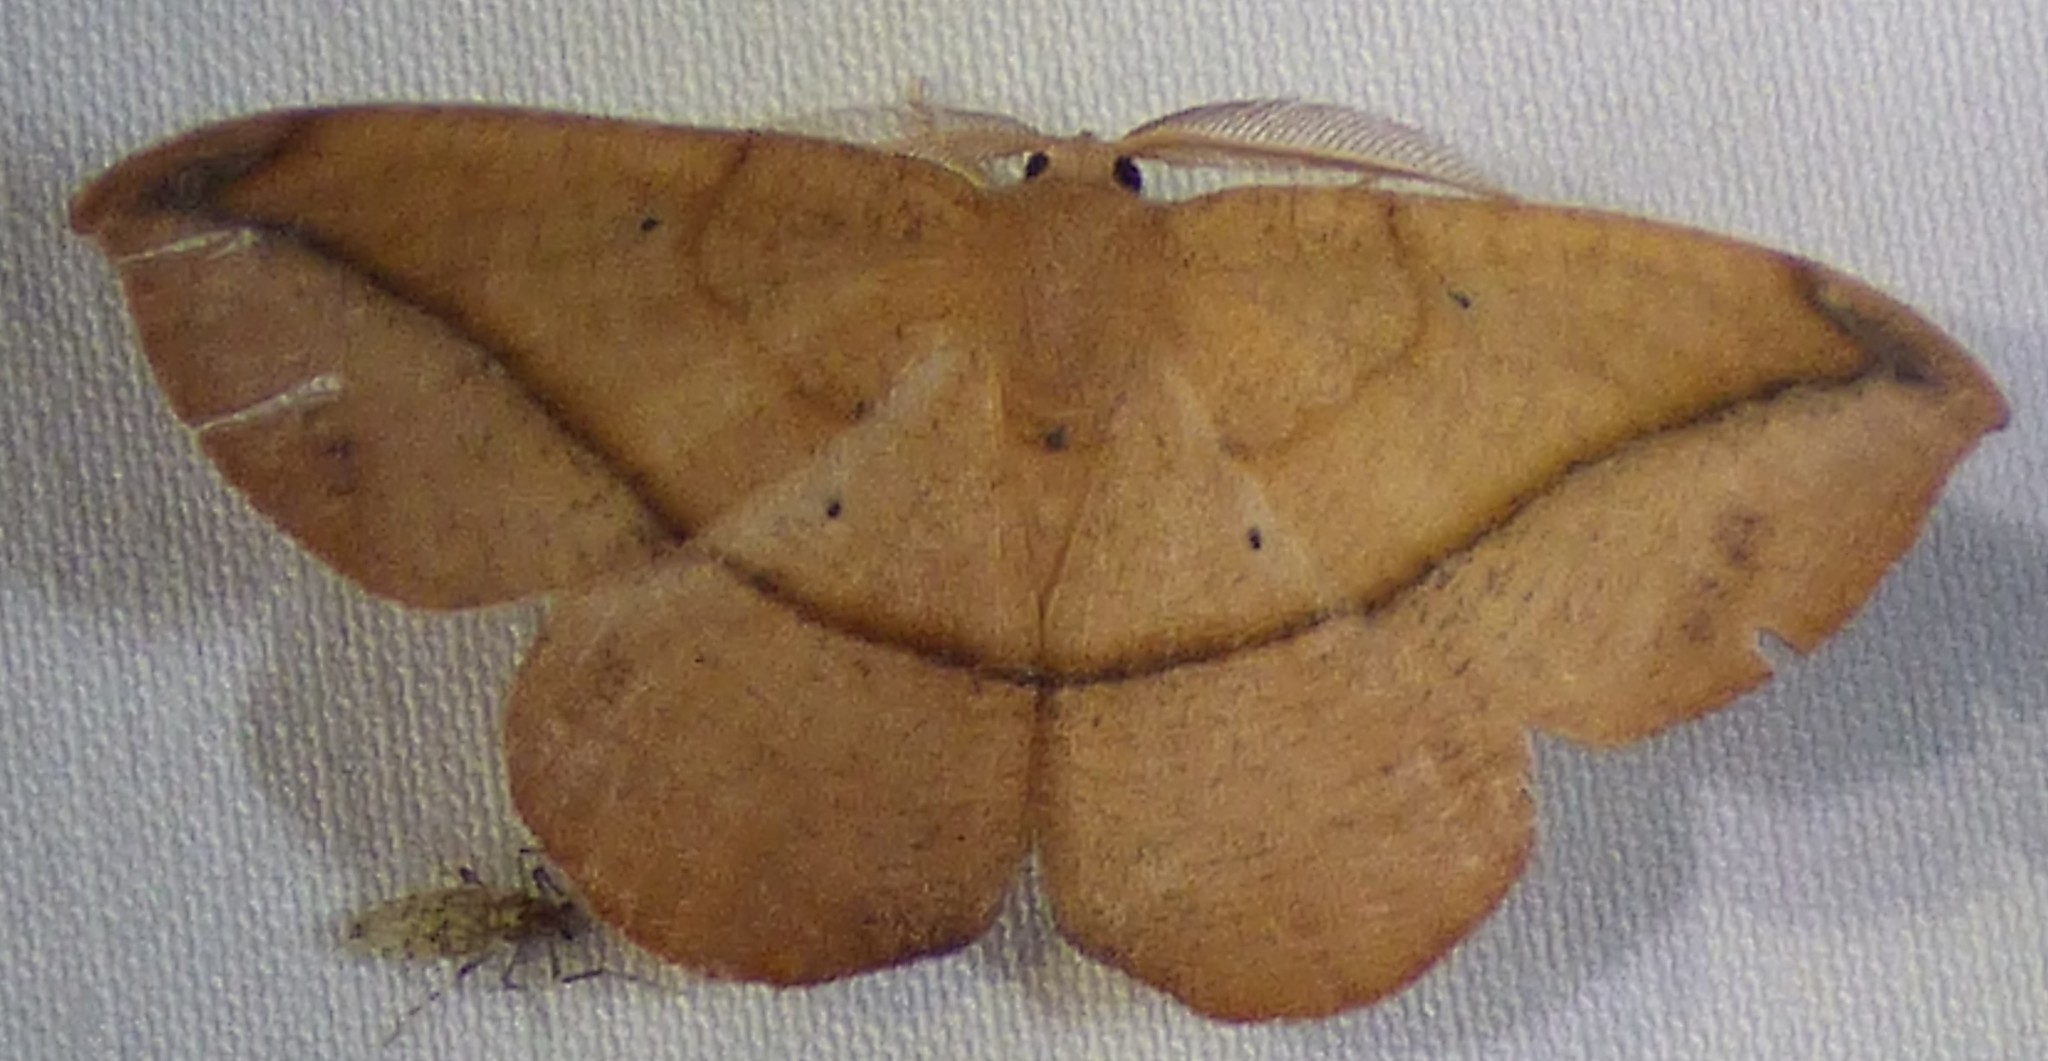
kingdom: Animalia
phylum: Arthropoda
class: Insecta
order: Lepidoptera
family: Geometridae
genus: Patalene
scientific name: Patalene olyzonaria
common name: Juniper geometer moth
